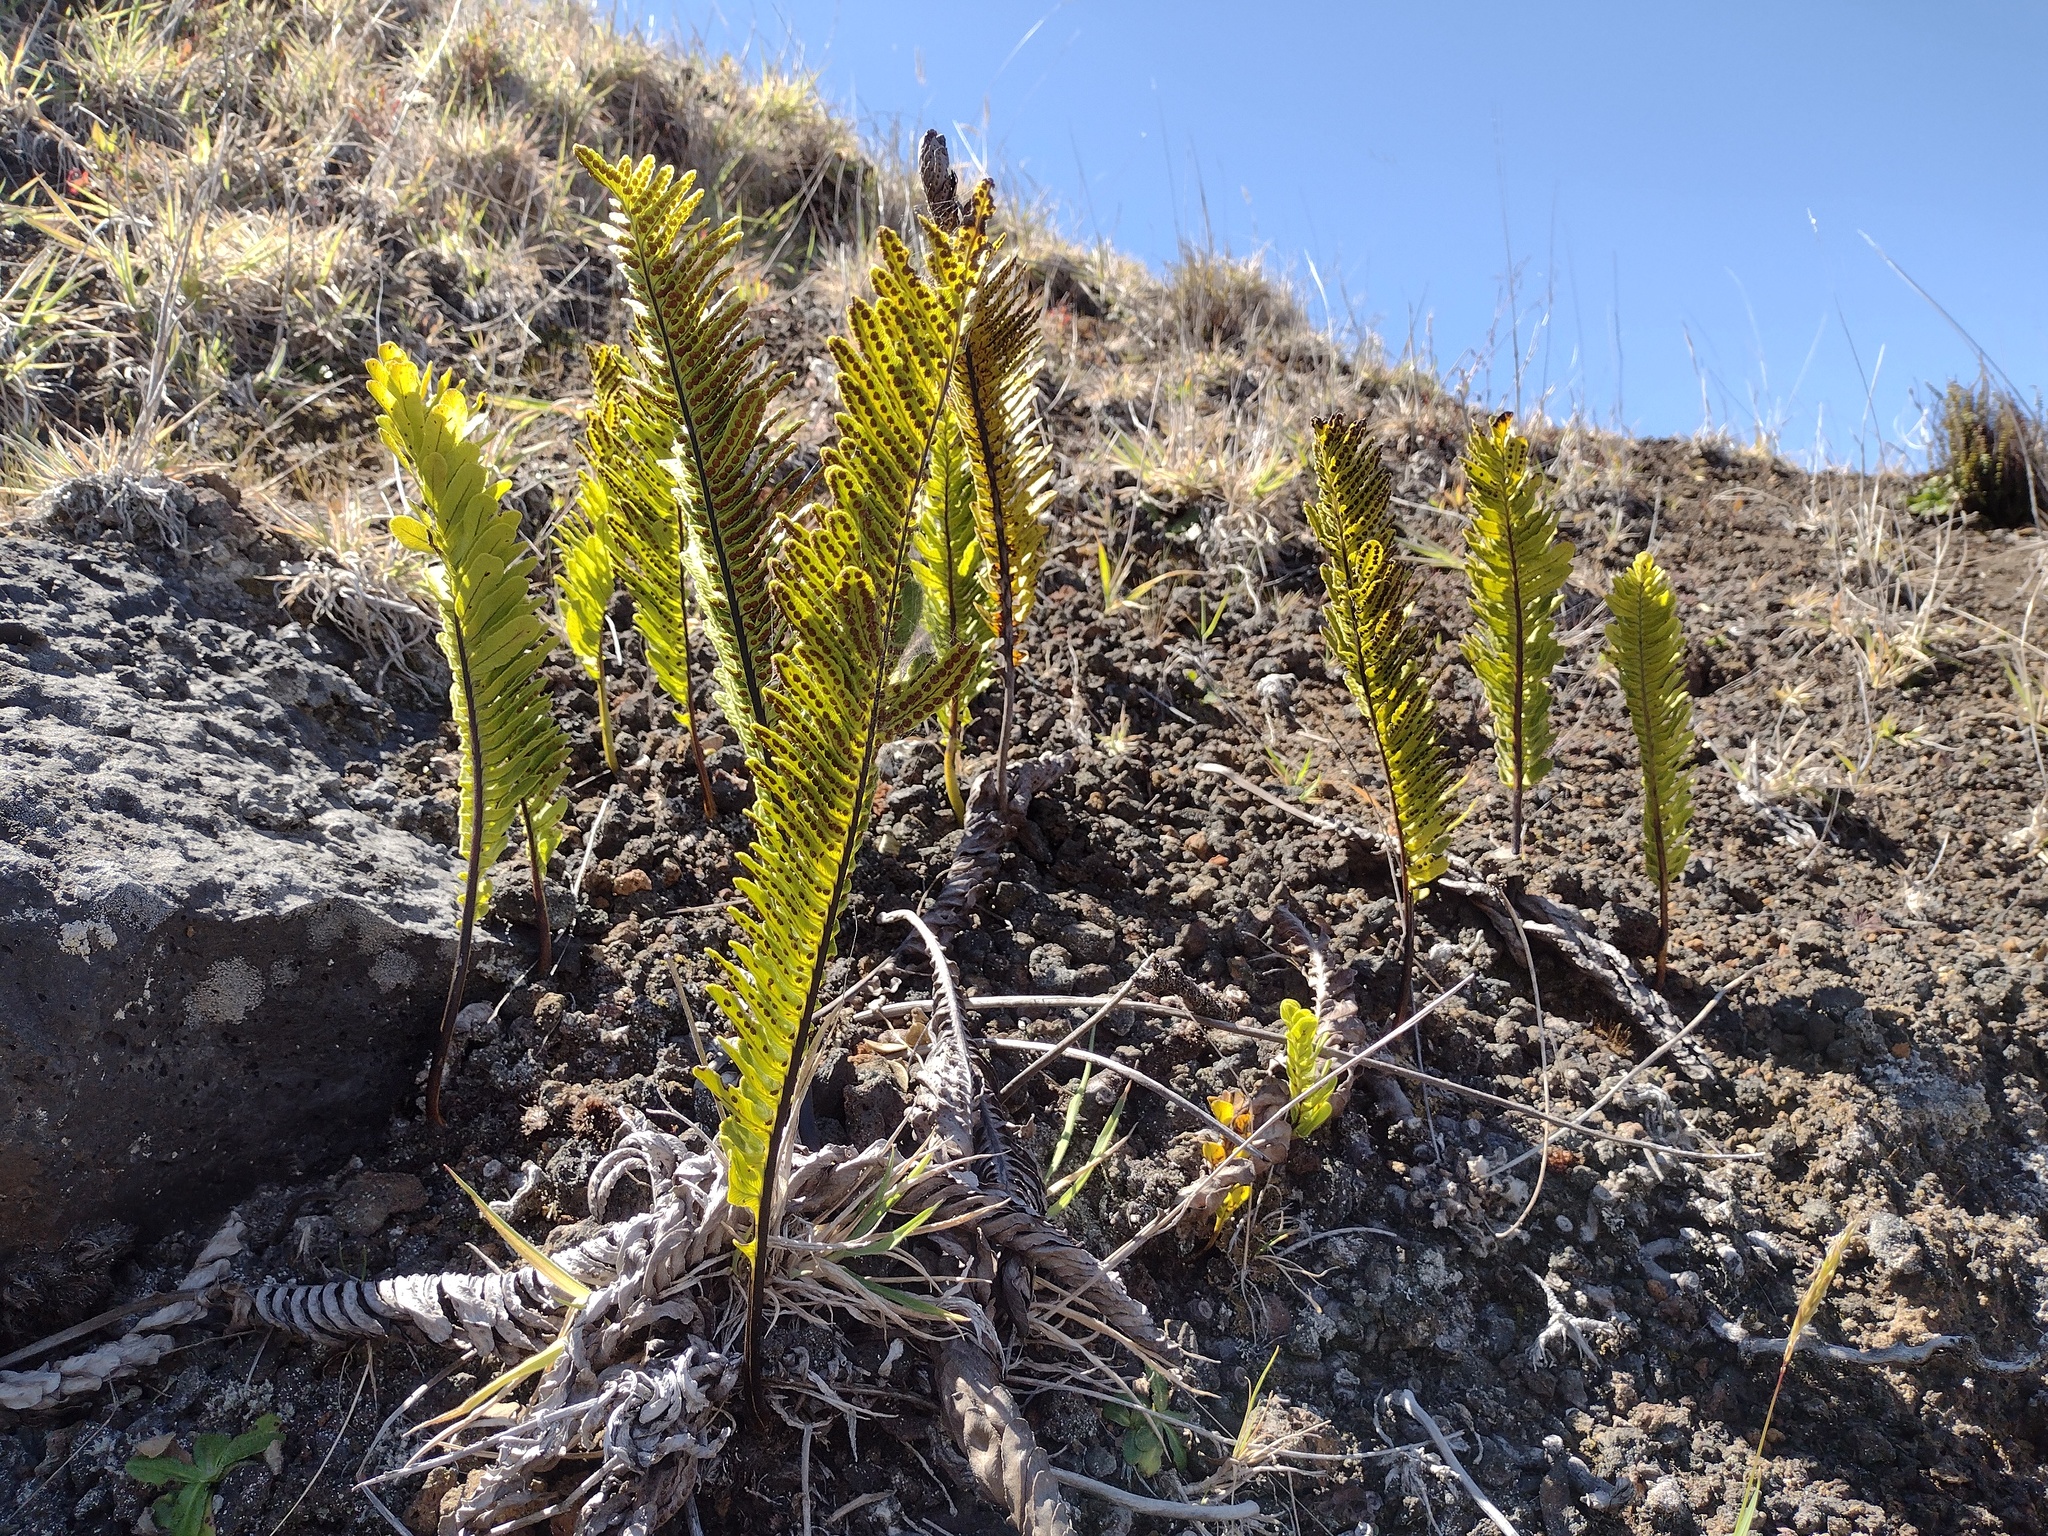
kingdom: Plantae
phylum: Tracheophyta
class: Polypodiopsida
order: Polypodiales
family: Polypodiaceae
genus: Polypodium
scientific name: Polypodium pellucidum
